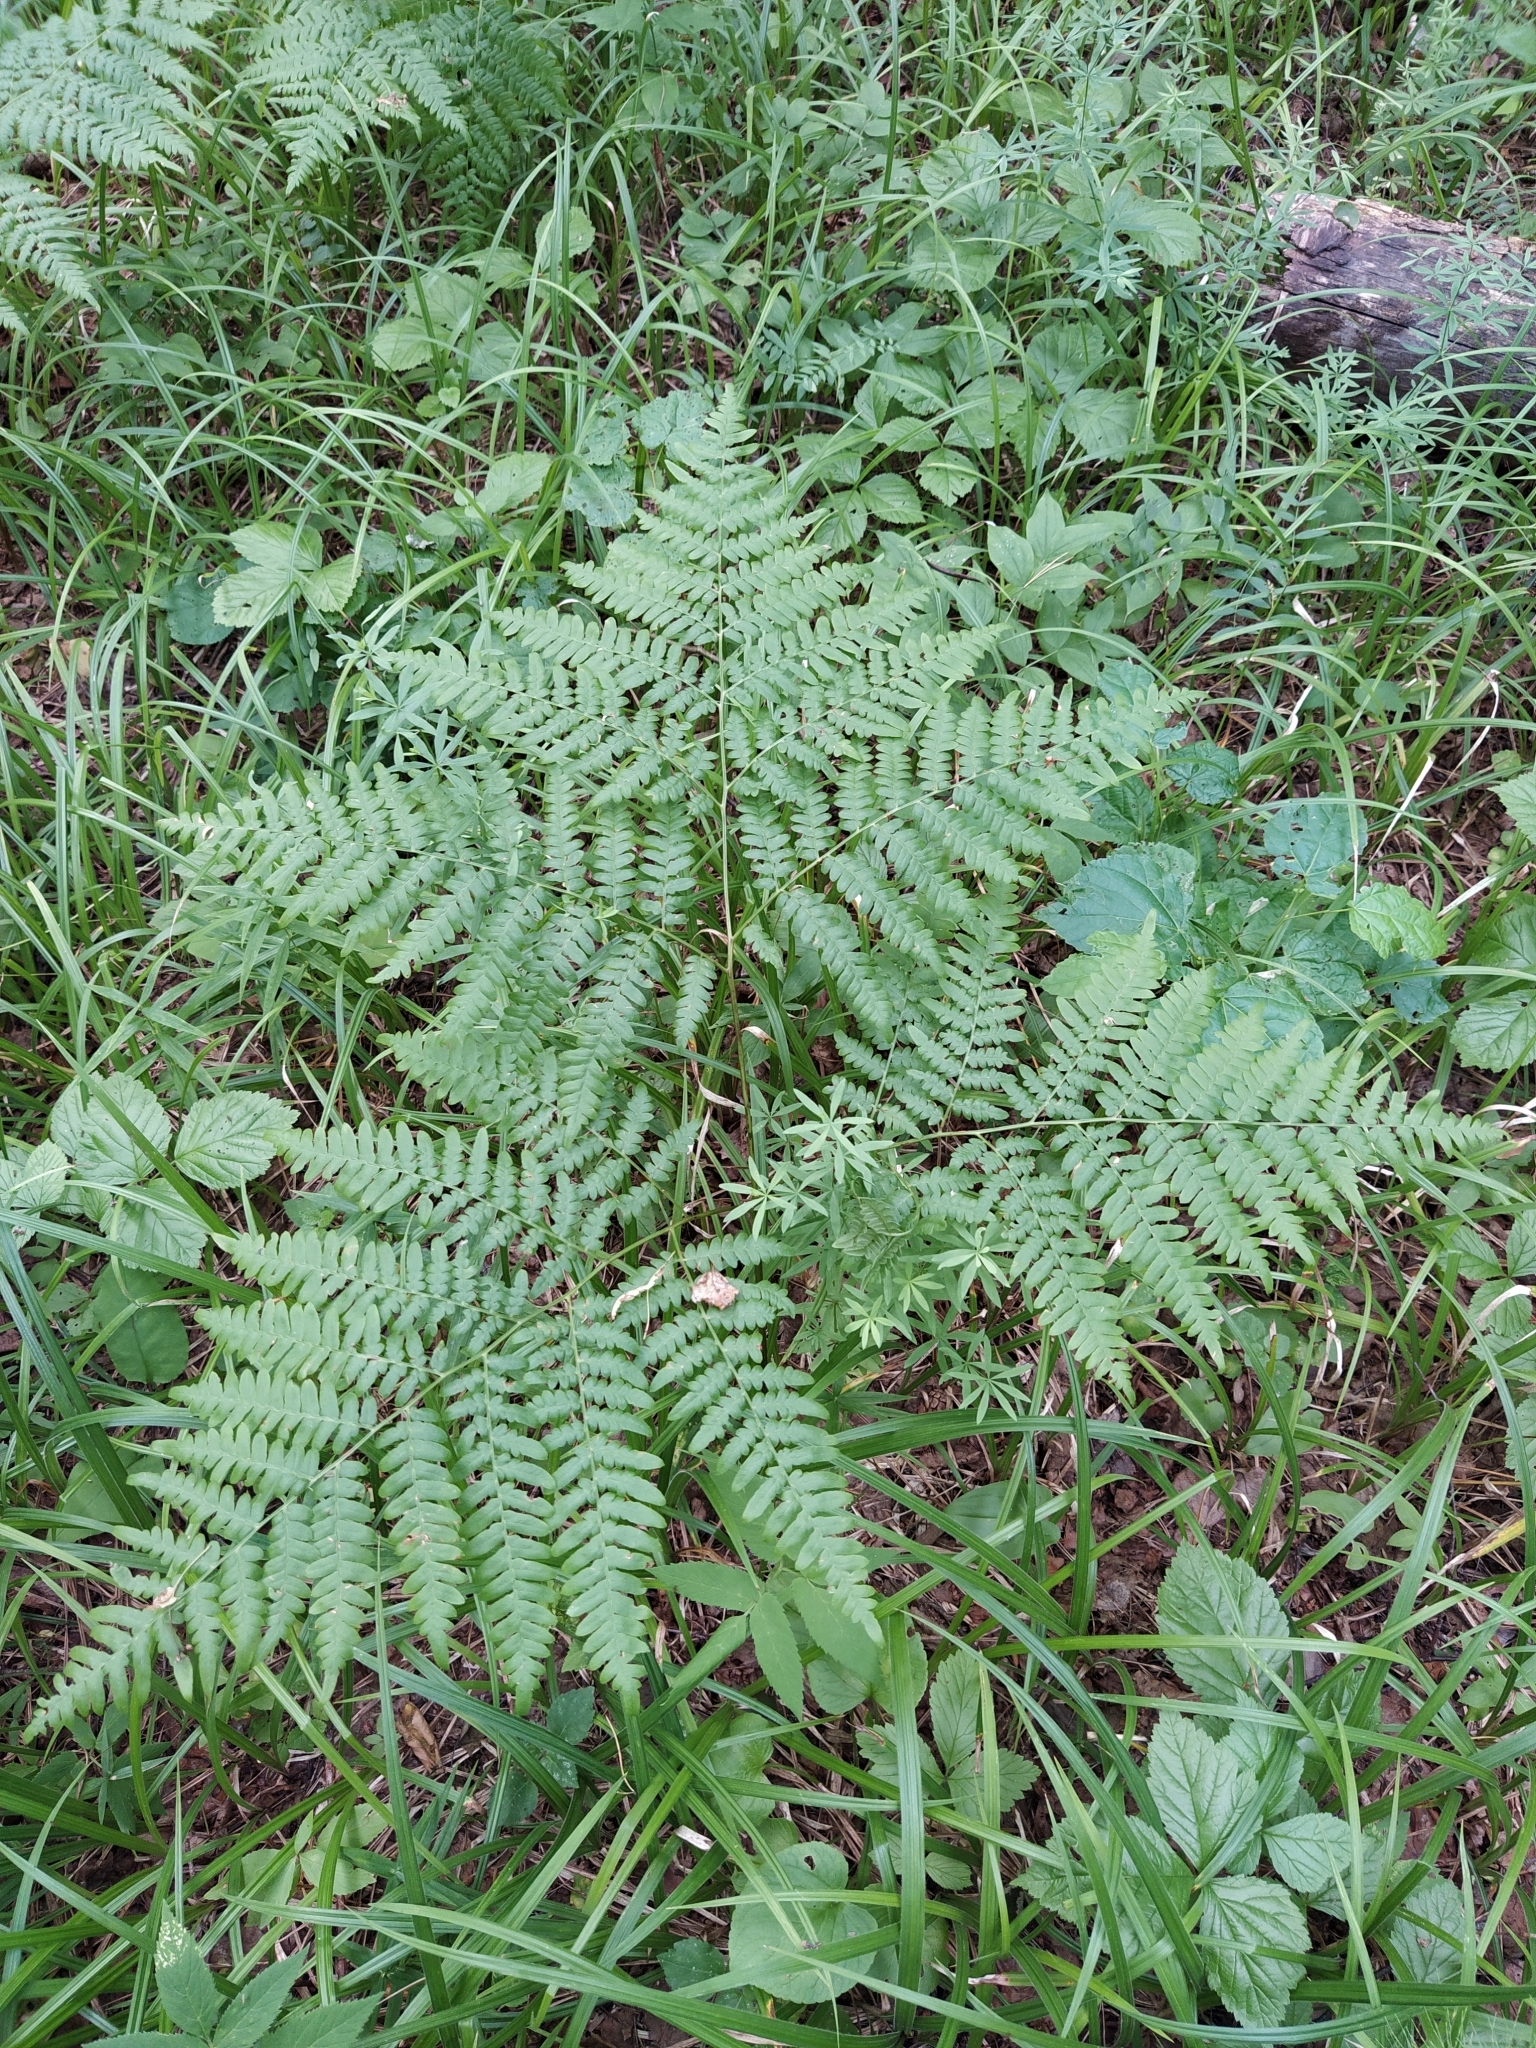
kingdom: Plantae
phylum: Tracheophyta
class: Polypodiopsida
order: Polypodiales
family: Dennstaedtiaceae
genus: Pteridium
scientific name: Pteridium aquilinum
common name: Bracken
